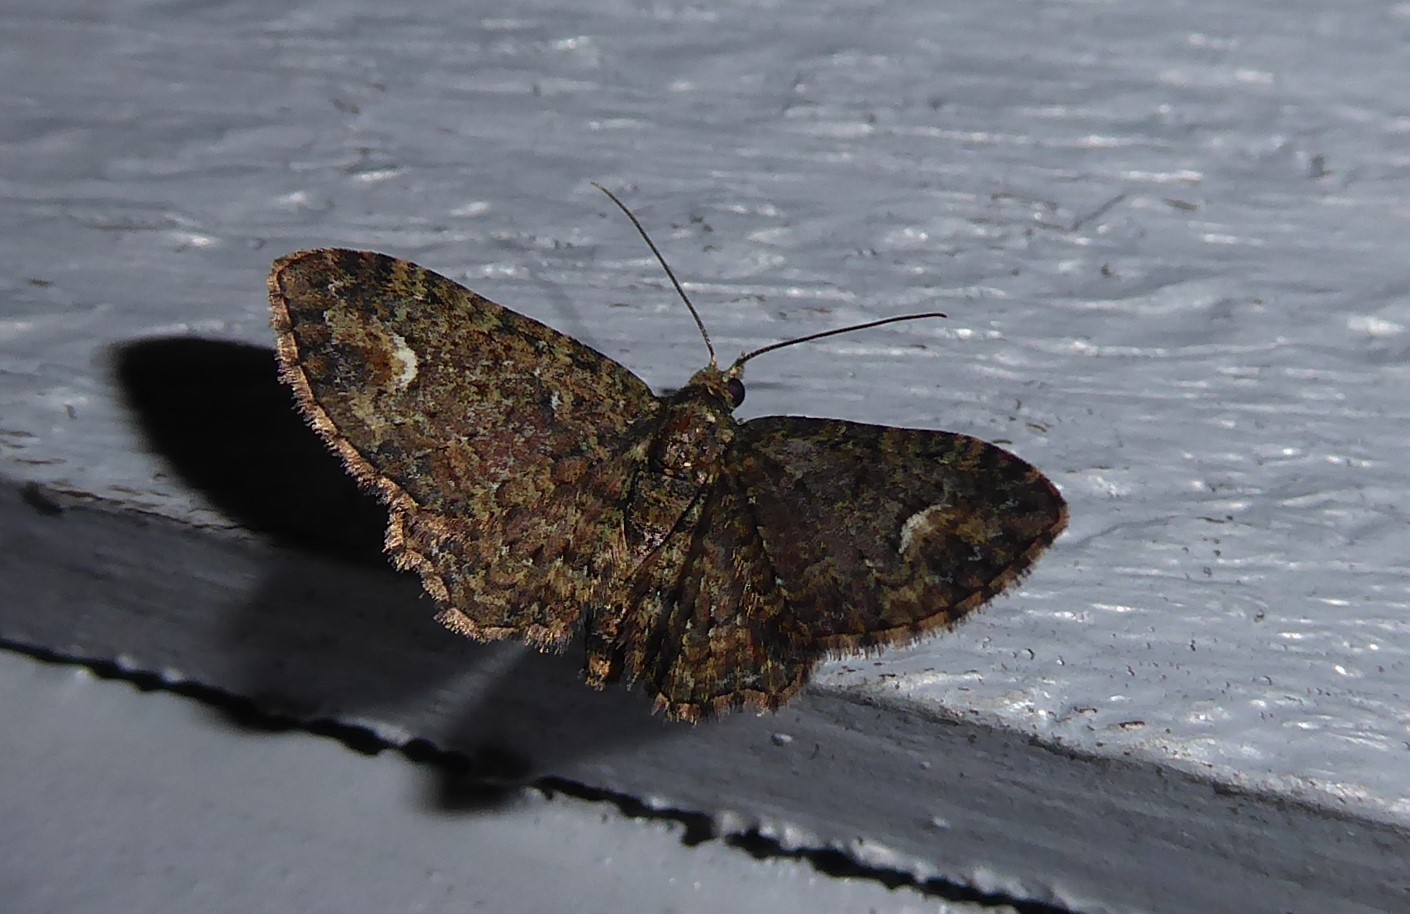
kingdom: Animalia
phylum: Arthropoda
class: Insecta
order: Lepidoptera
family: Geometridae
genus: Pasiphilodes
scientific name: Pasiphilodes testulata
